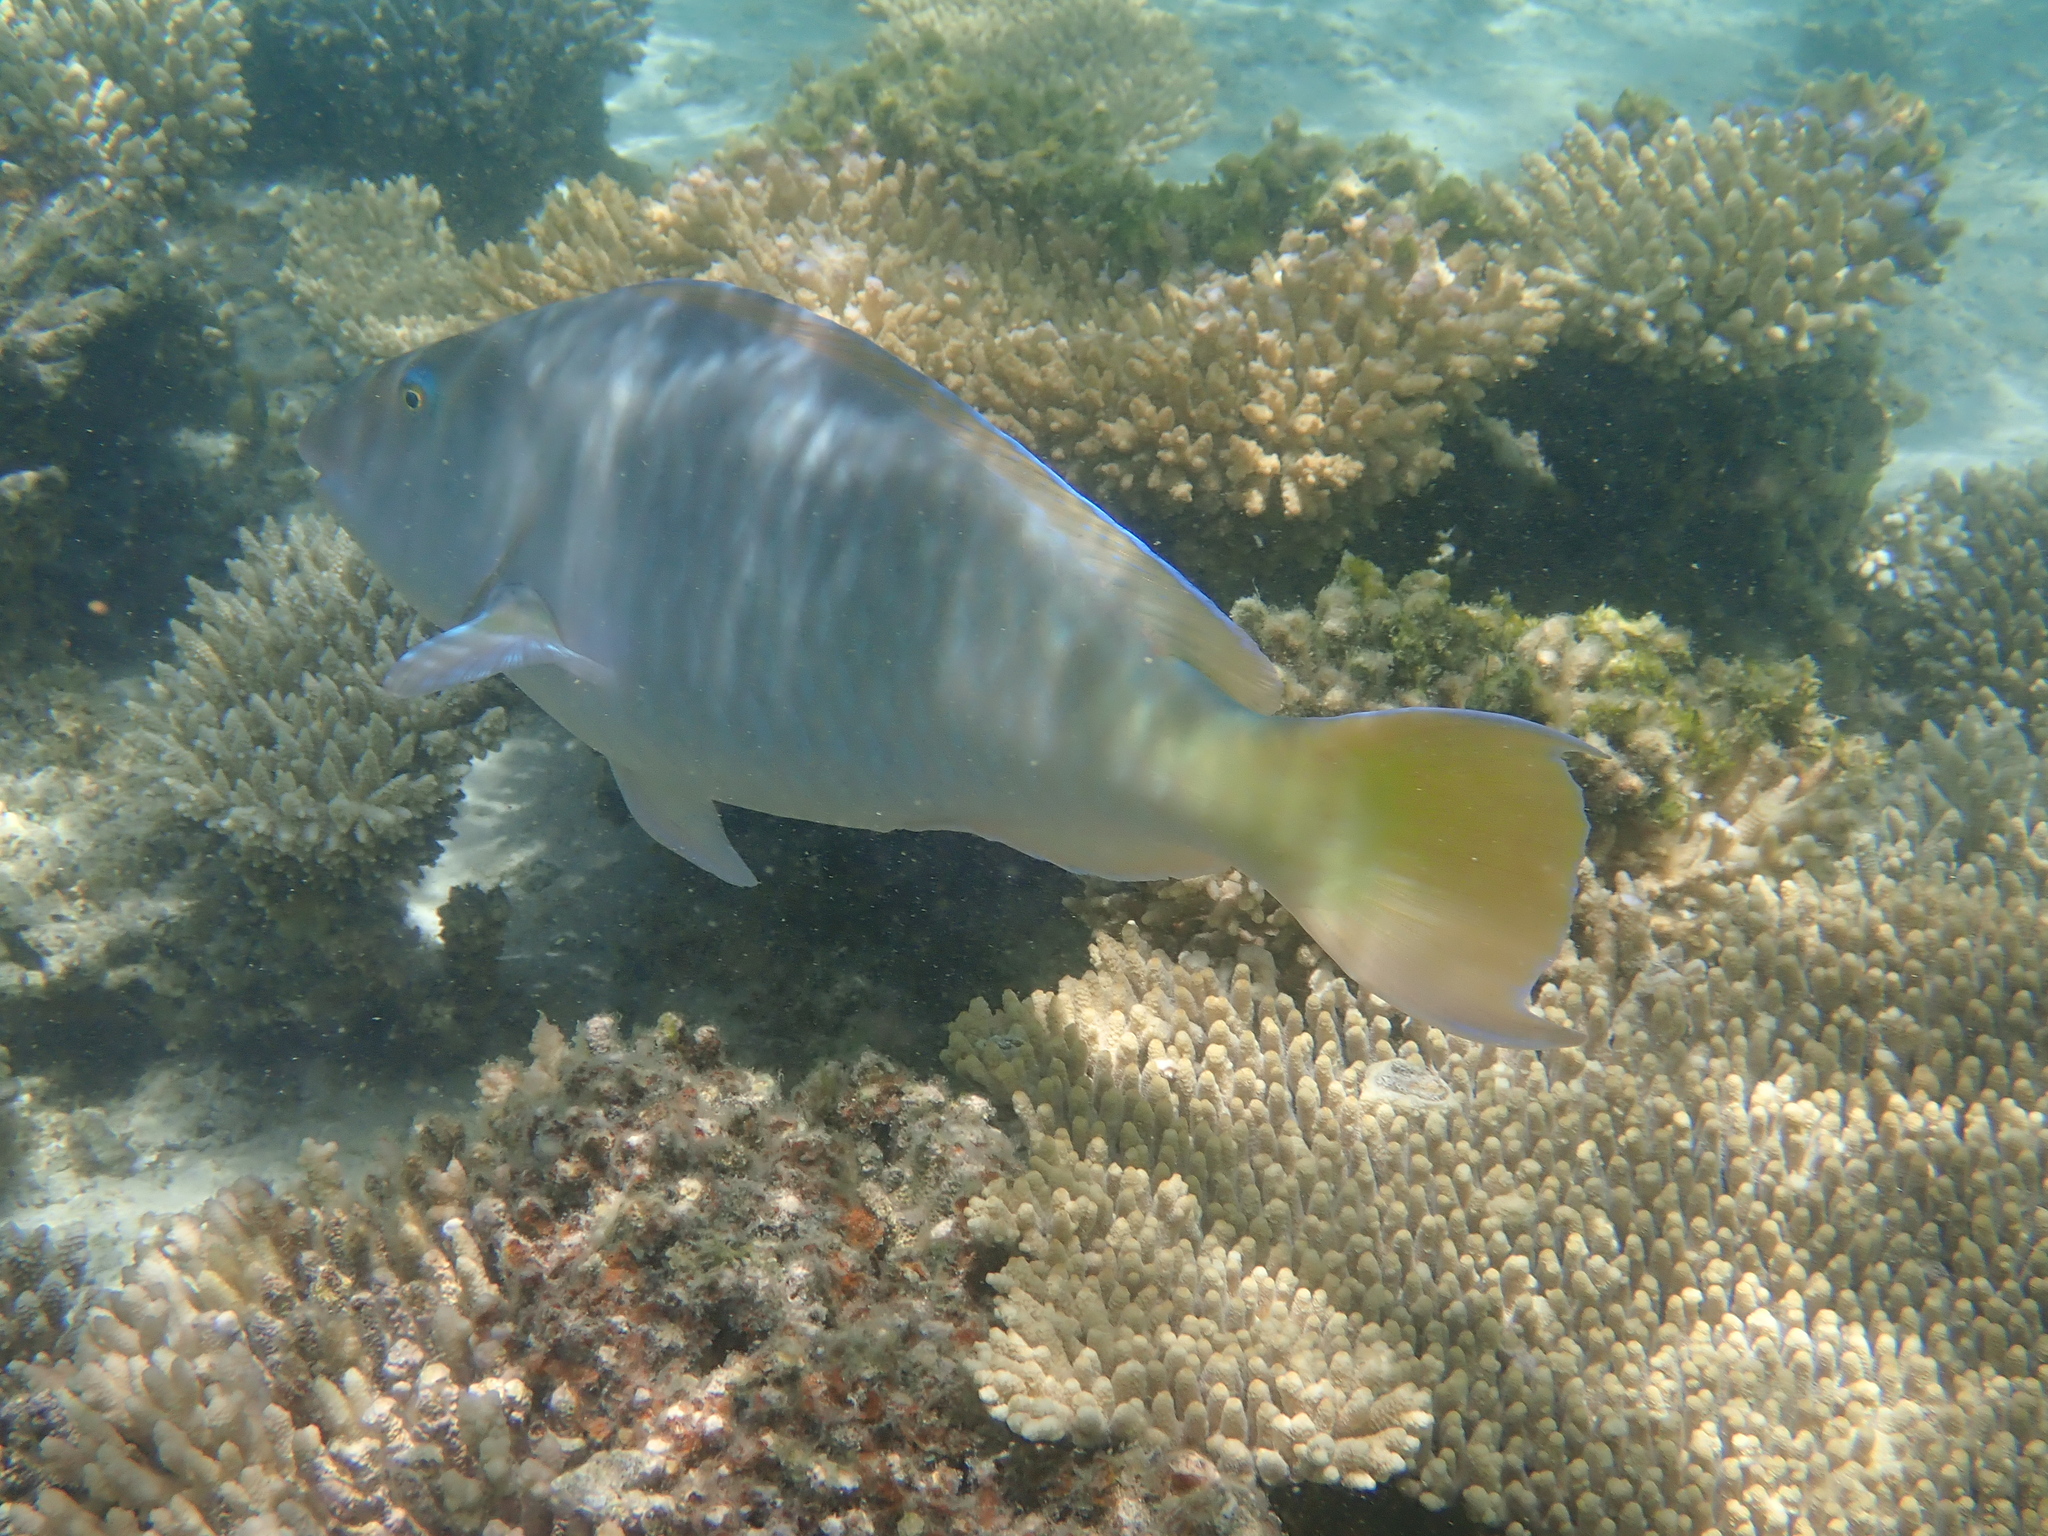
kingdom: Animalia
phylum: Chordata
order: Perciformes
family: Scaridae
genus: Hipposcarus
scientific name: Hipposcarus longiceps
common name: Pacific longnose parrotfish
